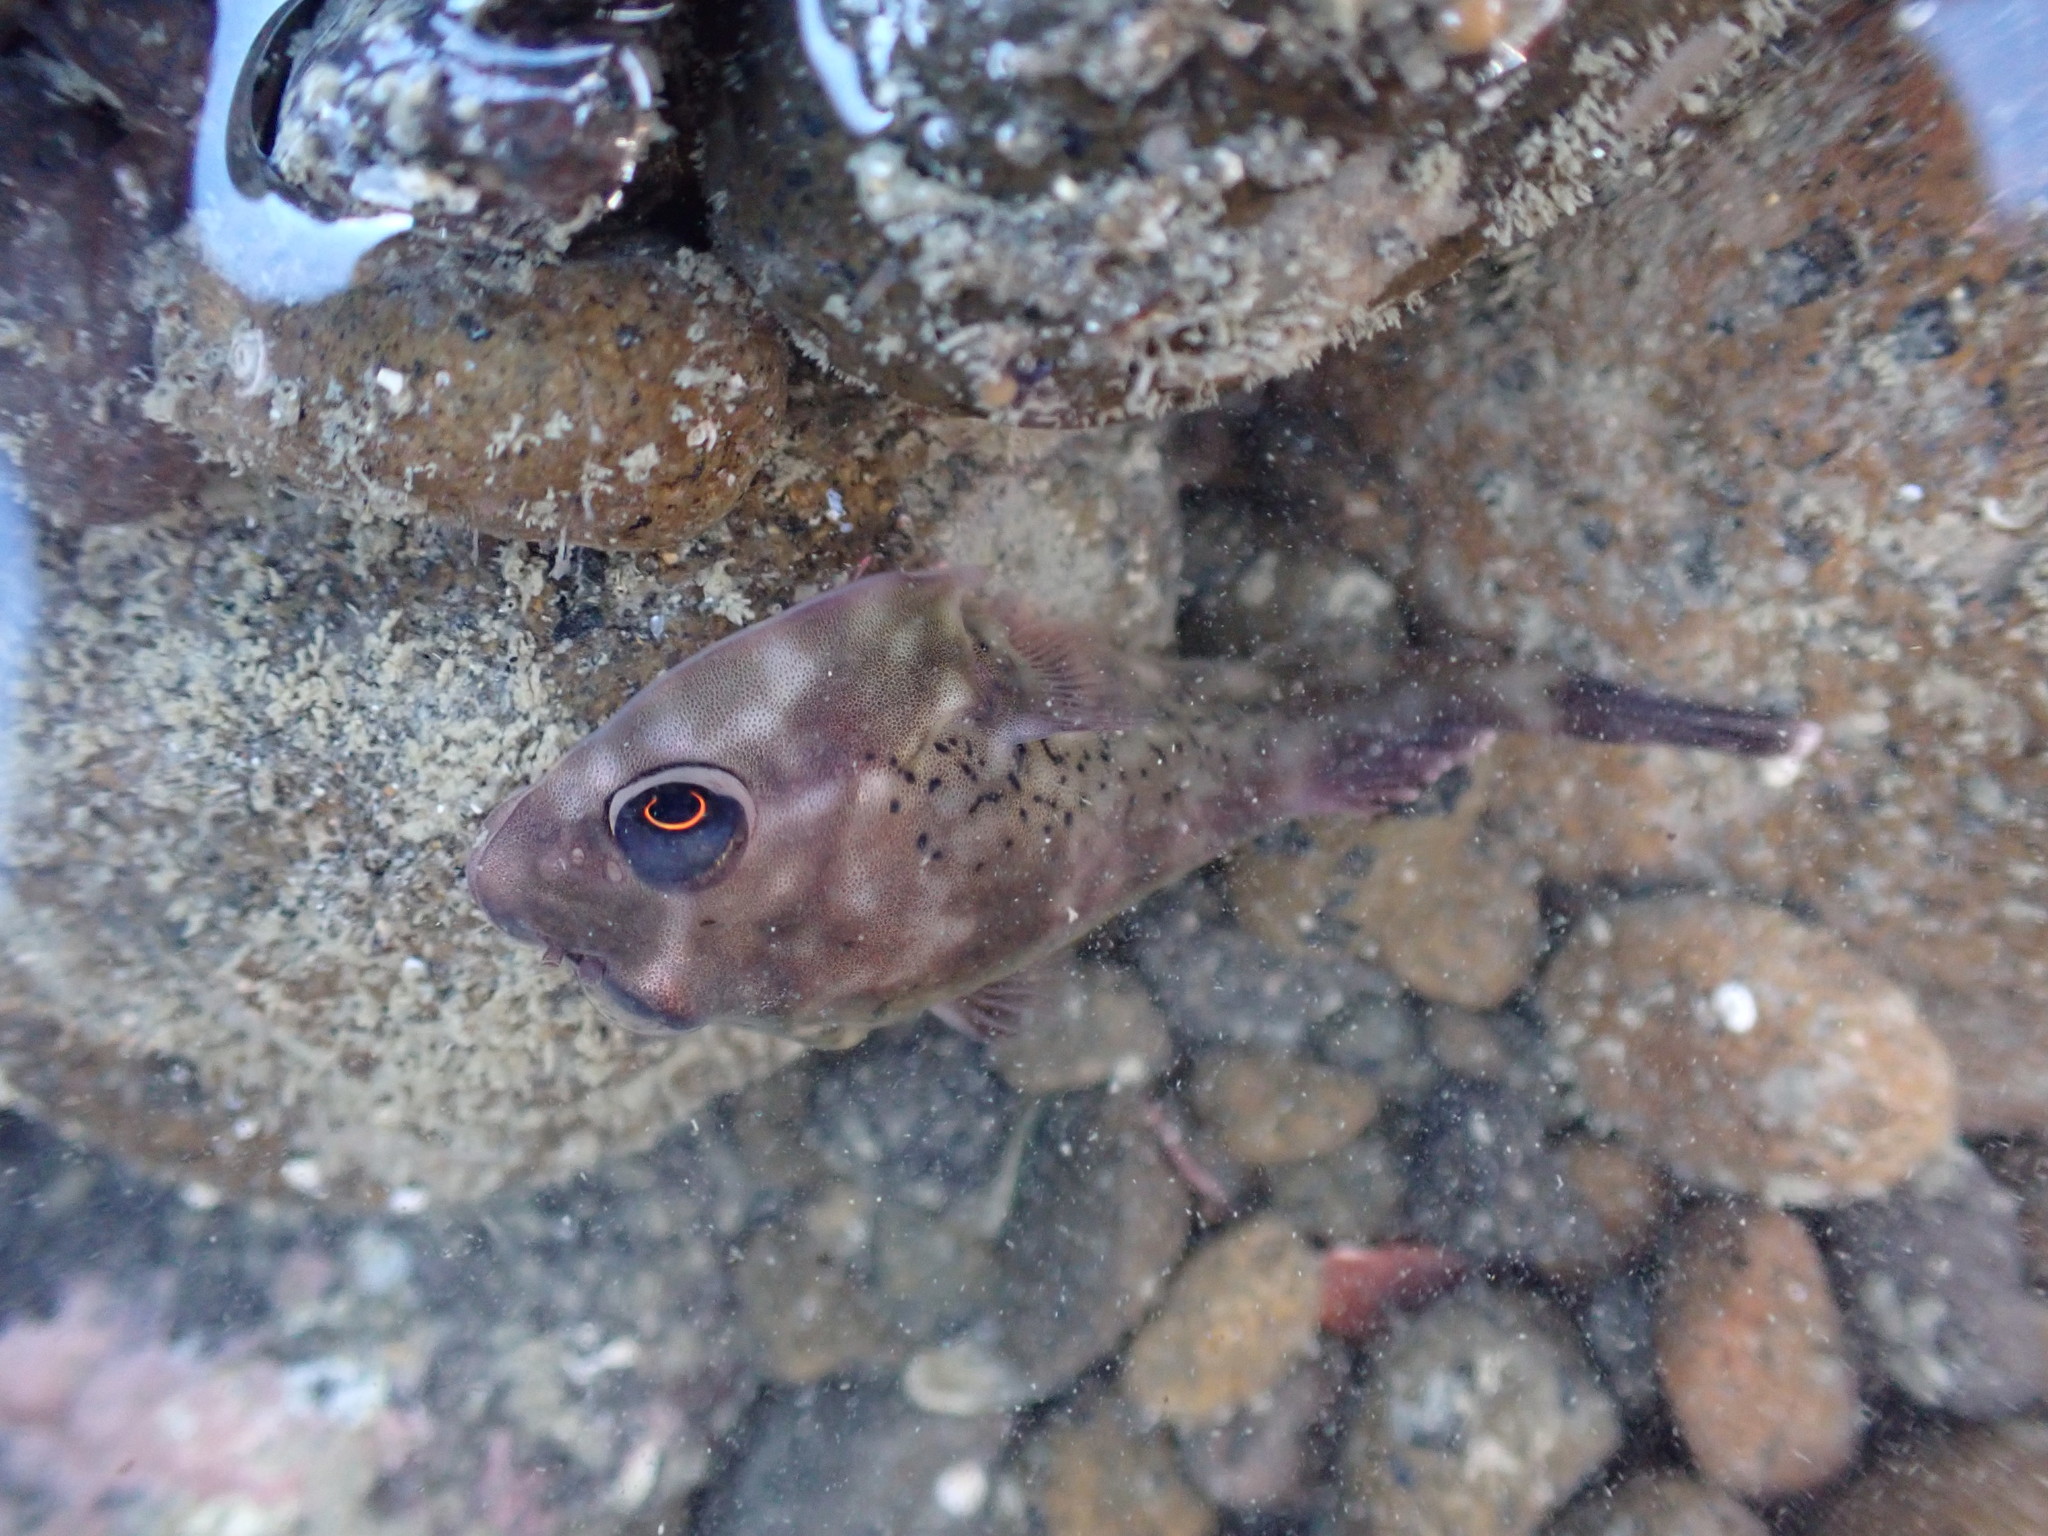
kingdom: Animalia
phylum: Chordata
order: Gobiesociformes
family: Gobiesocidae
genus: Diplocrepis
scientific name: Diplocrepis puniceus
